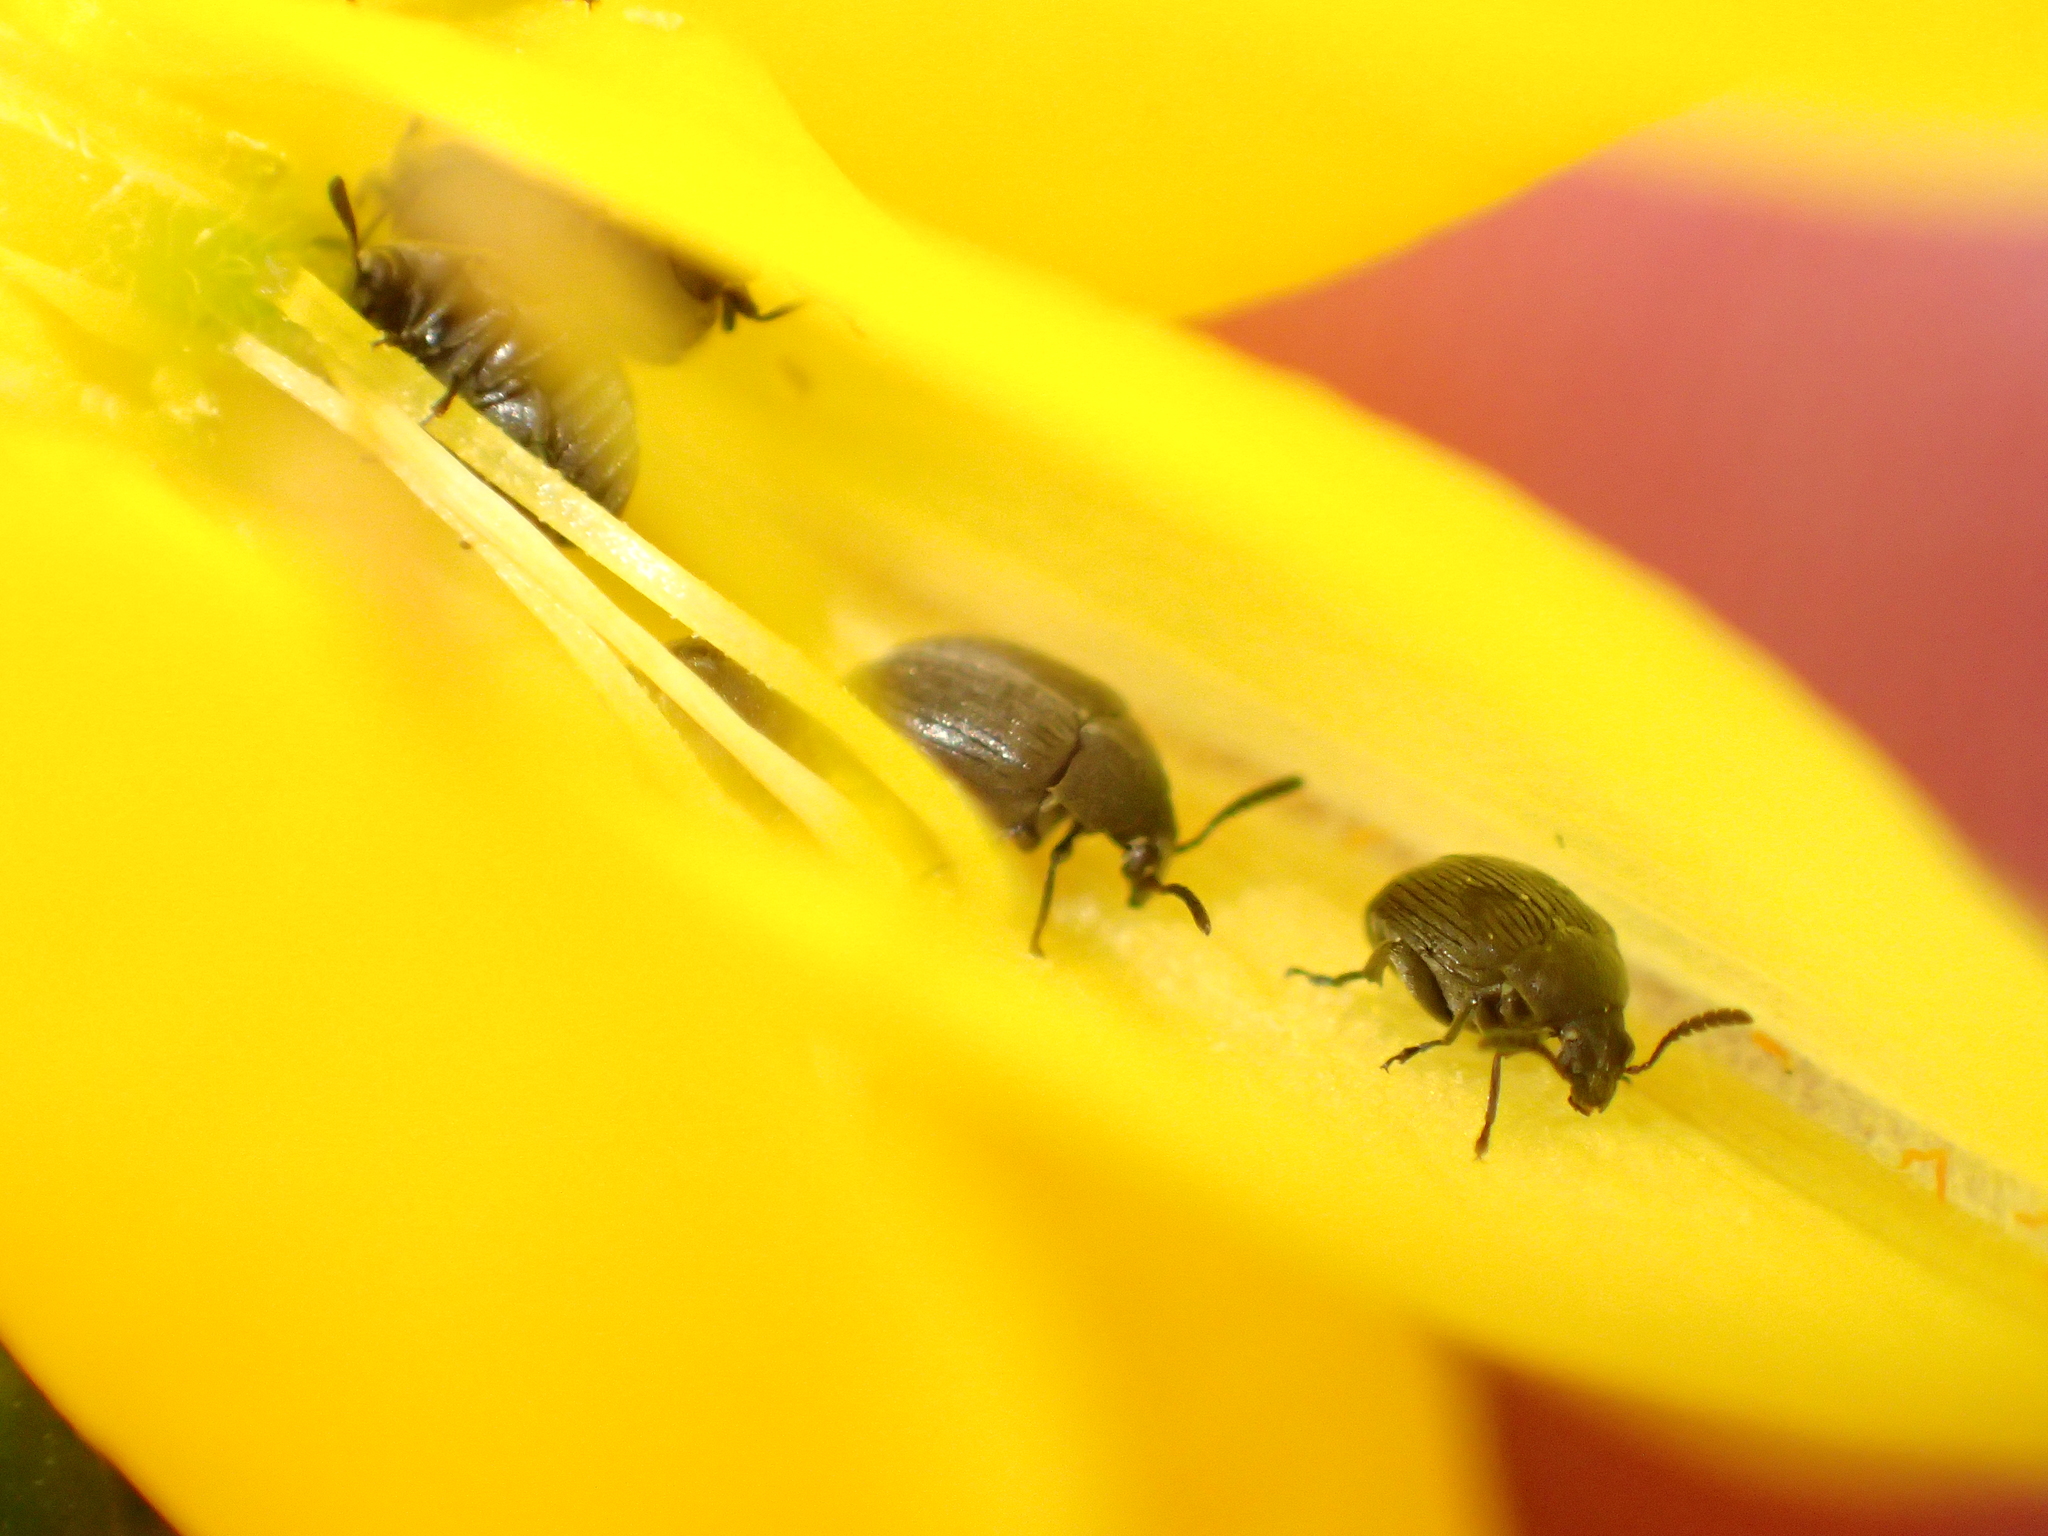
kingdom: Animalia
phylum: Arthropoda
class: Insecta
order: Coleoptera
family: Chrysomelidae
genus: Bruchidius
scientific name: Bruchidius villosus
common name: Scotch broom bruchid
